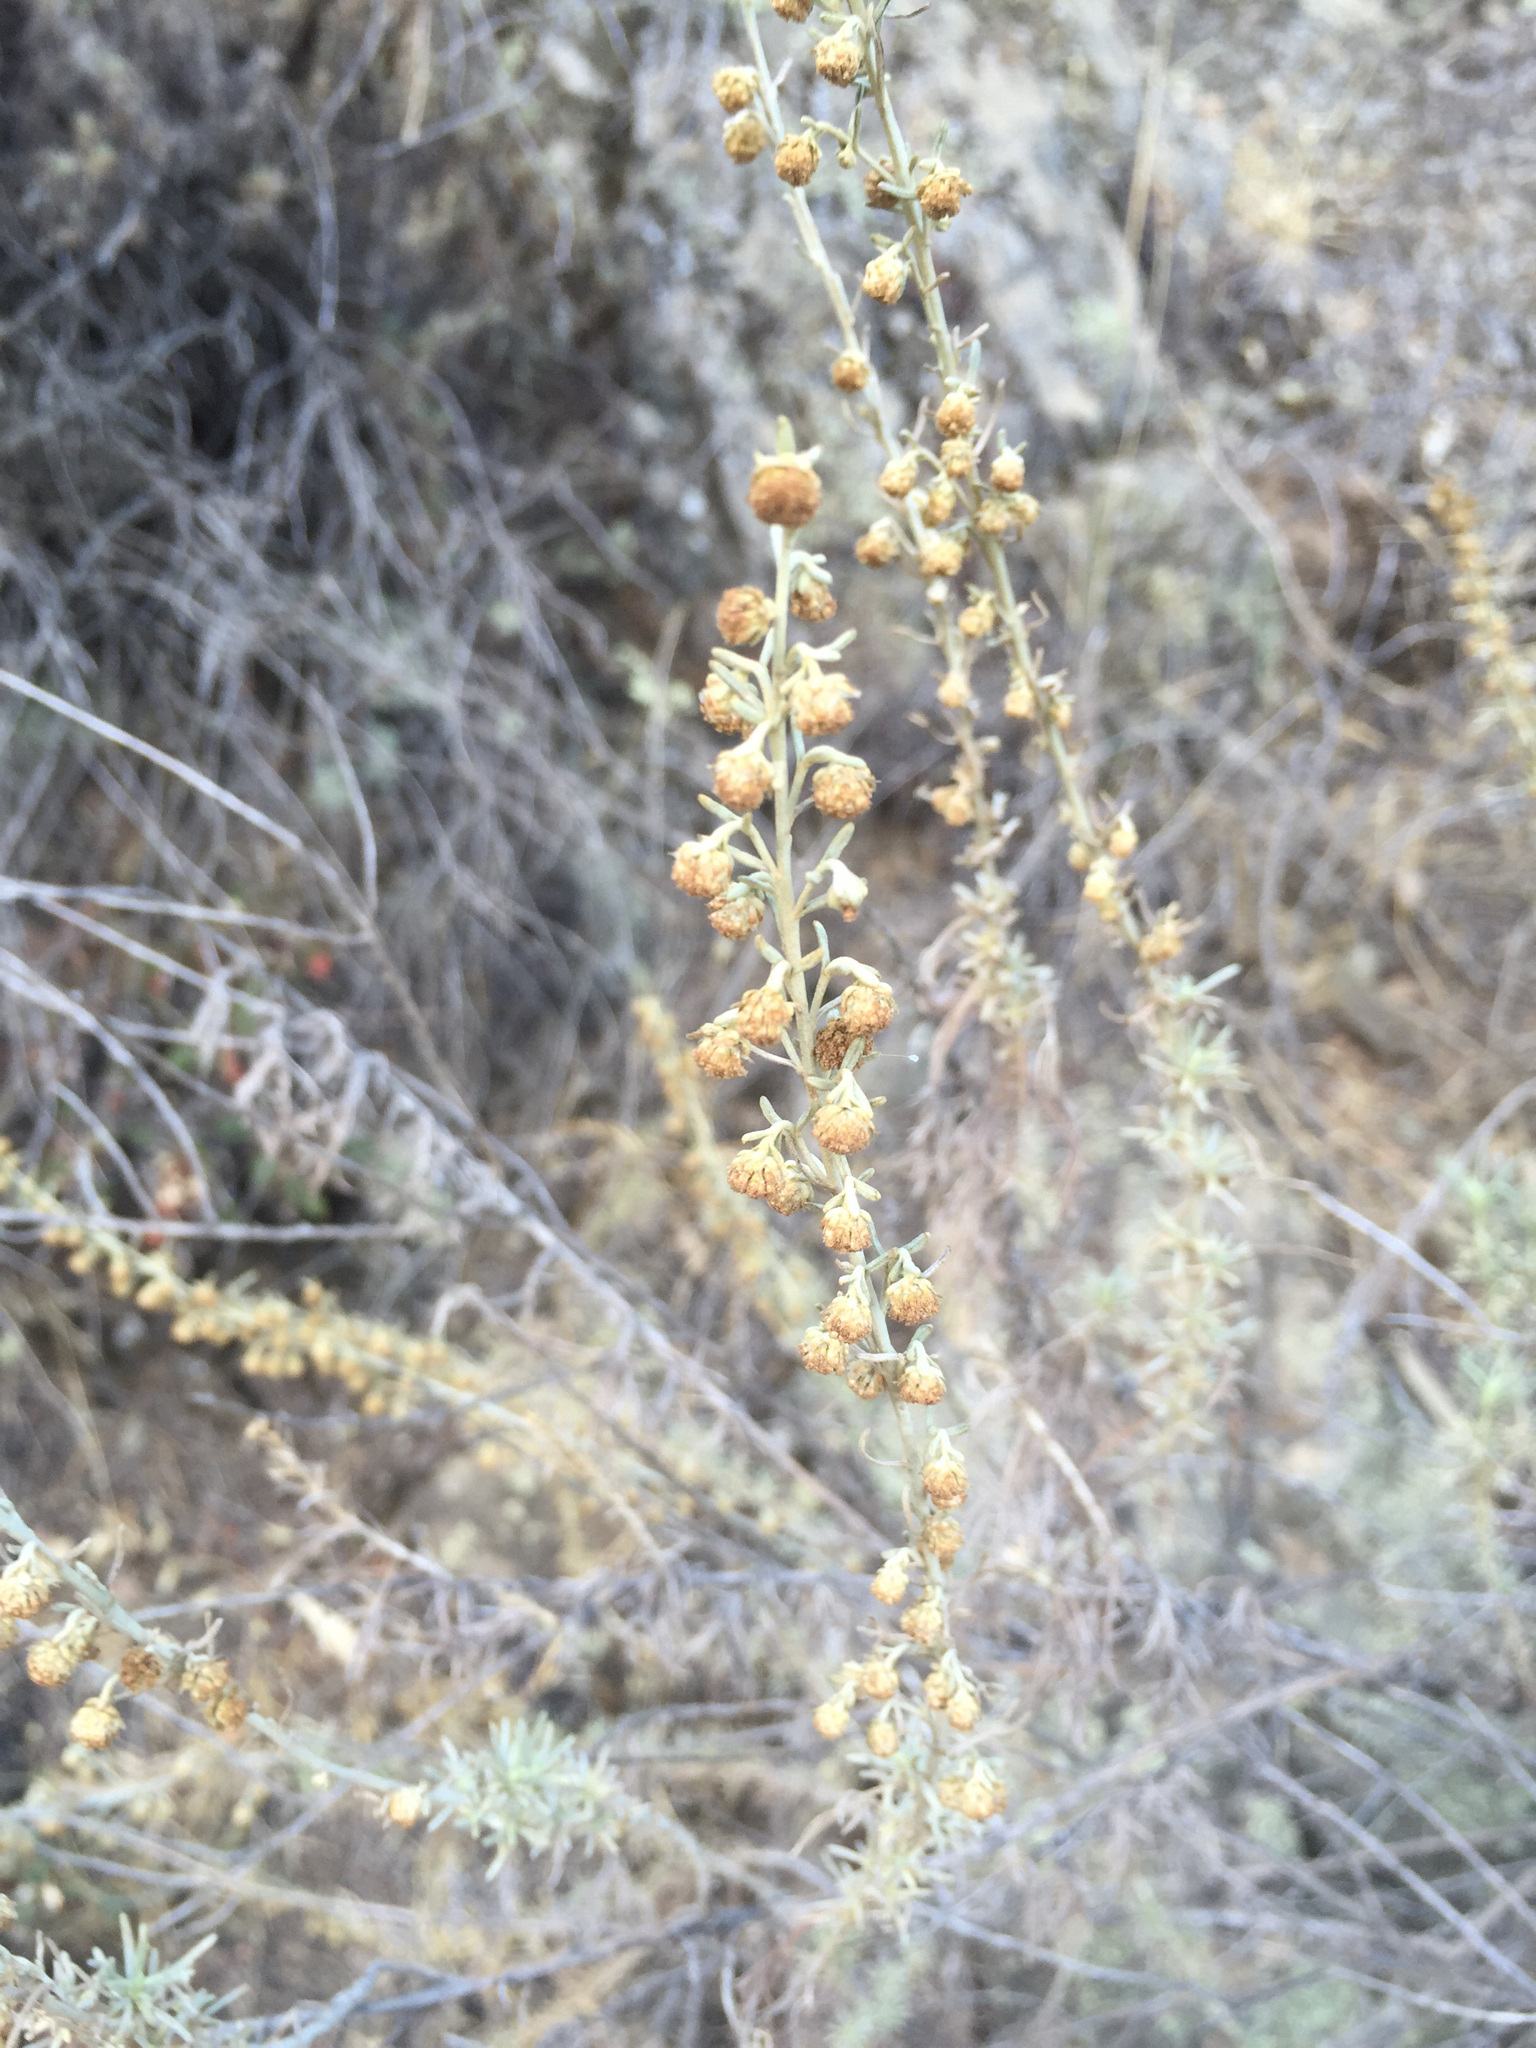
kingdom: Plantae
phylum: Tracheophyta
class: Magnoliopsida
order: Asterales
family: Asteraceae
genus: Artemisia
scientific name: Artemisia californica
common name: California sagebrush
